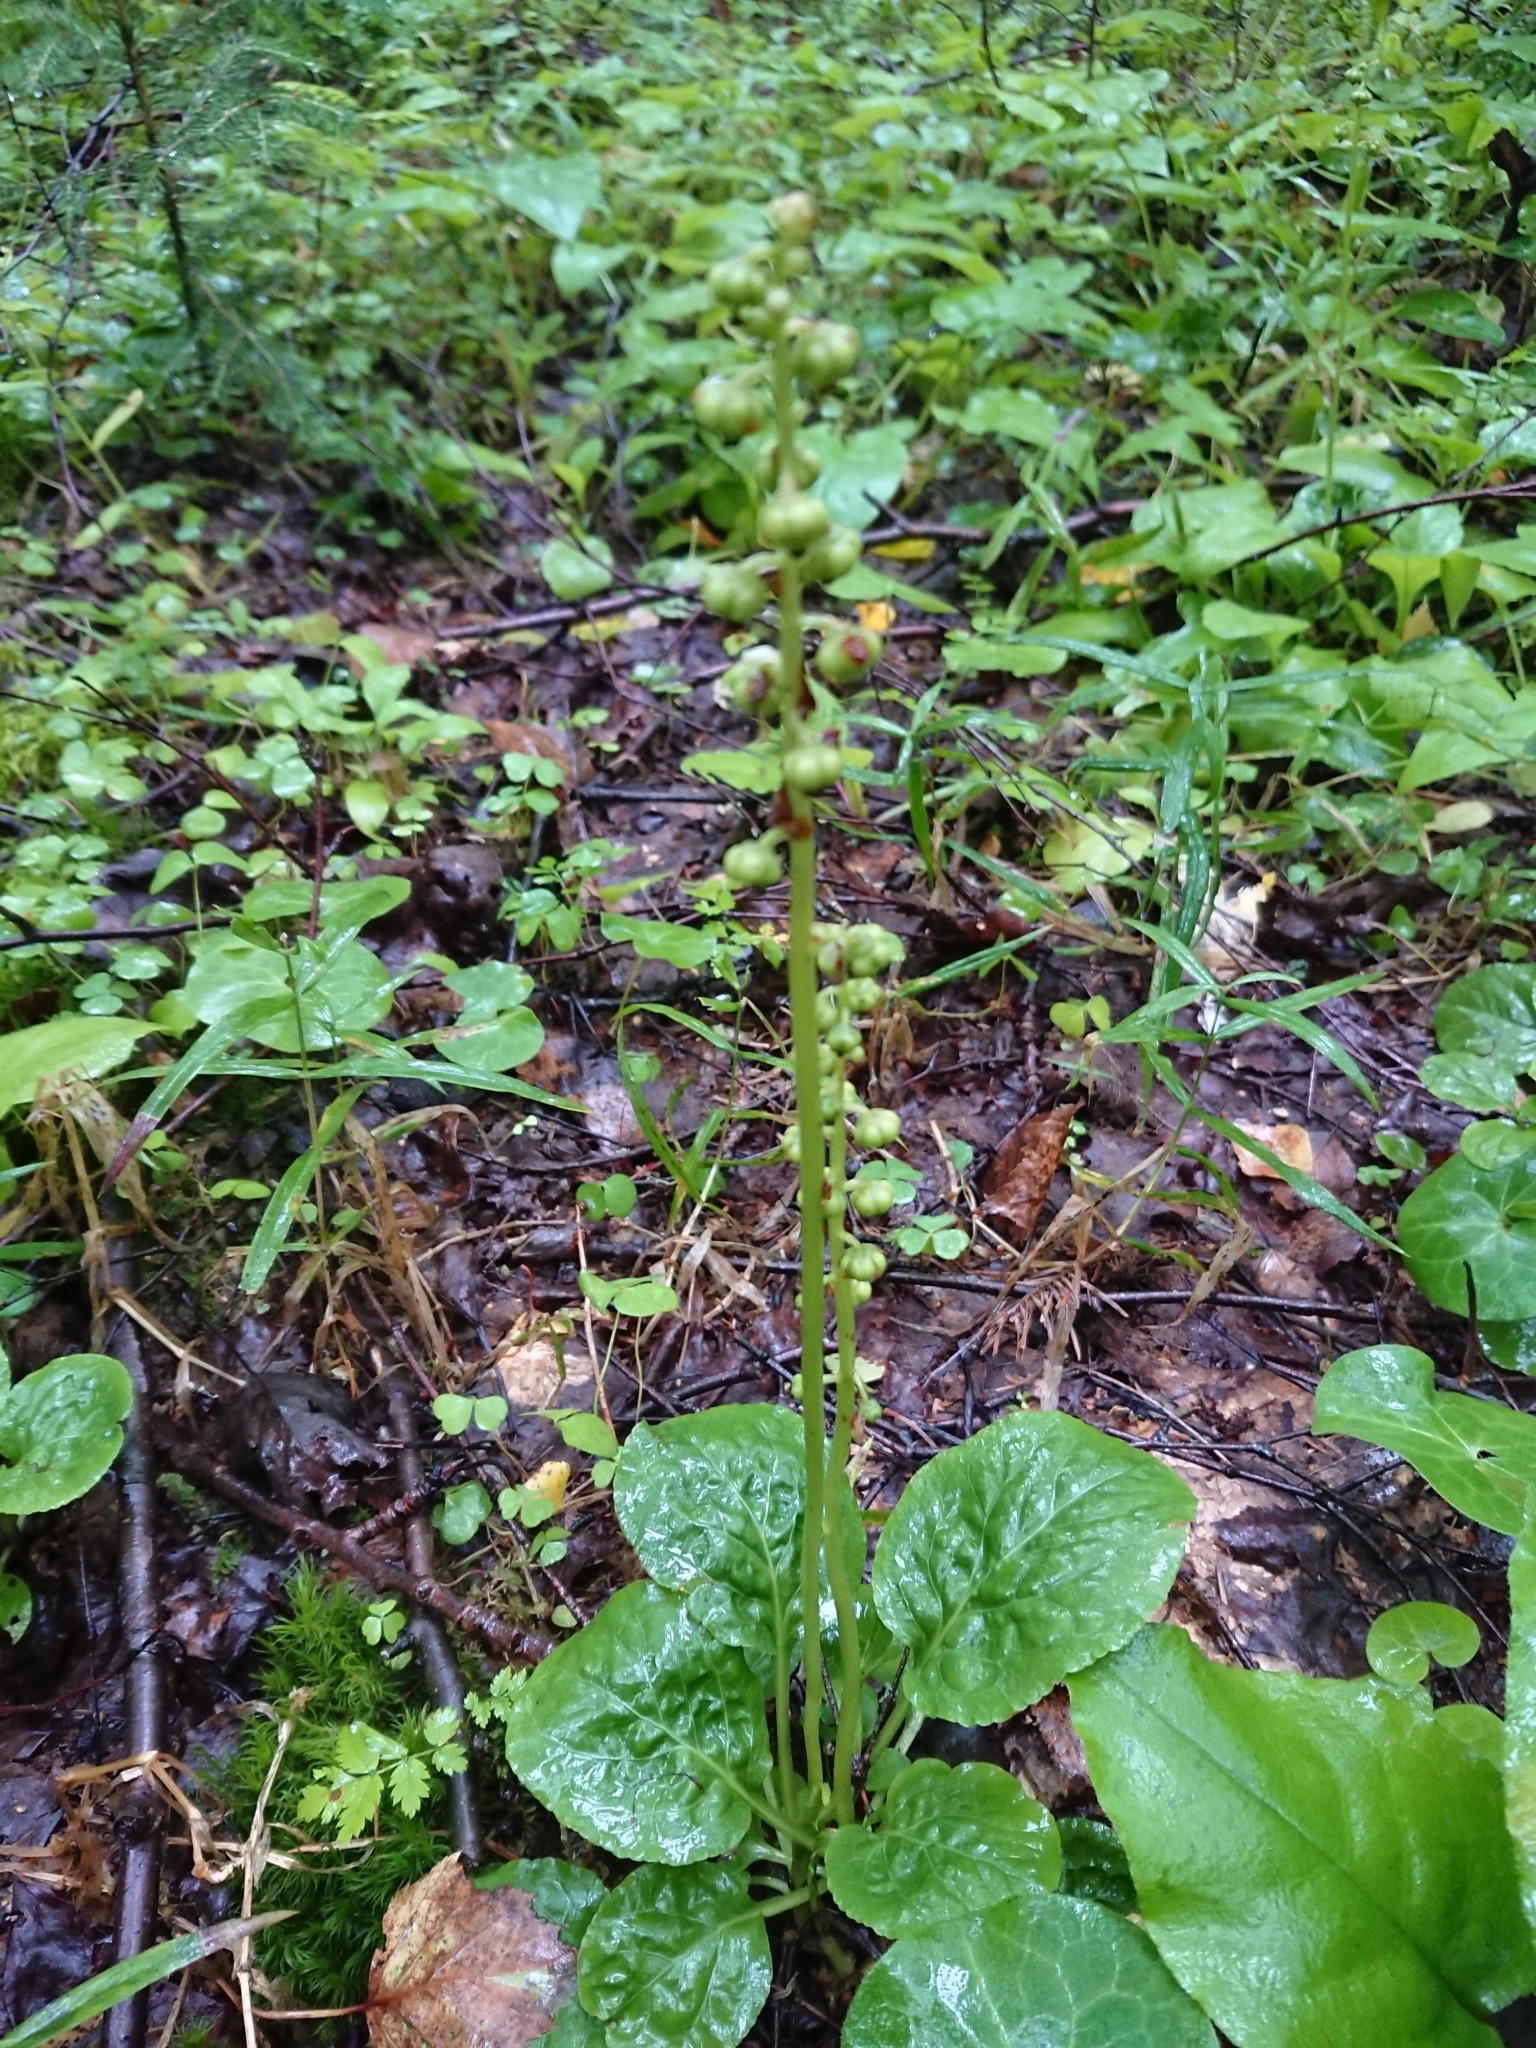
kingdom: Plantae
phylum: Tracheophyta
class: Magnoliopsida
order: Ericales
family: Ericaceae
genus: Pyrola
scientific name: Pyrola minor
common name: Common wintergreen
